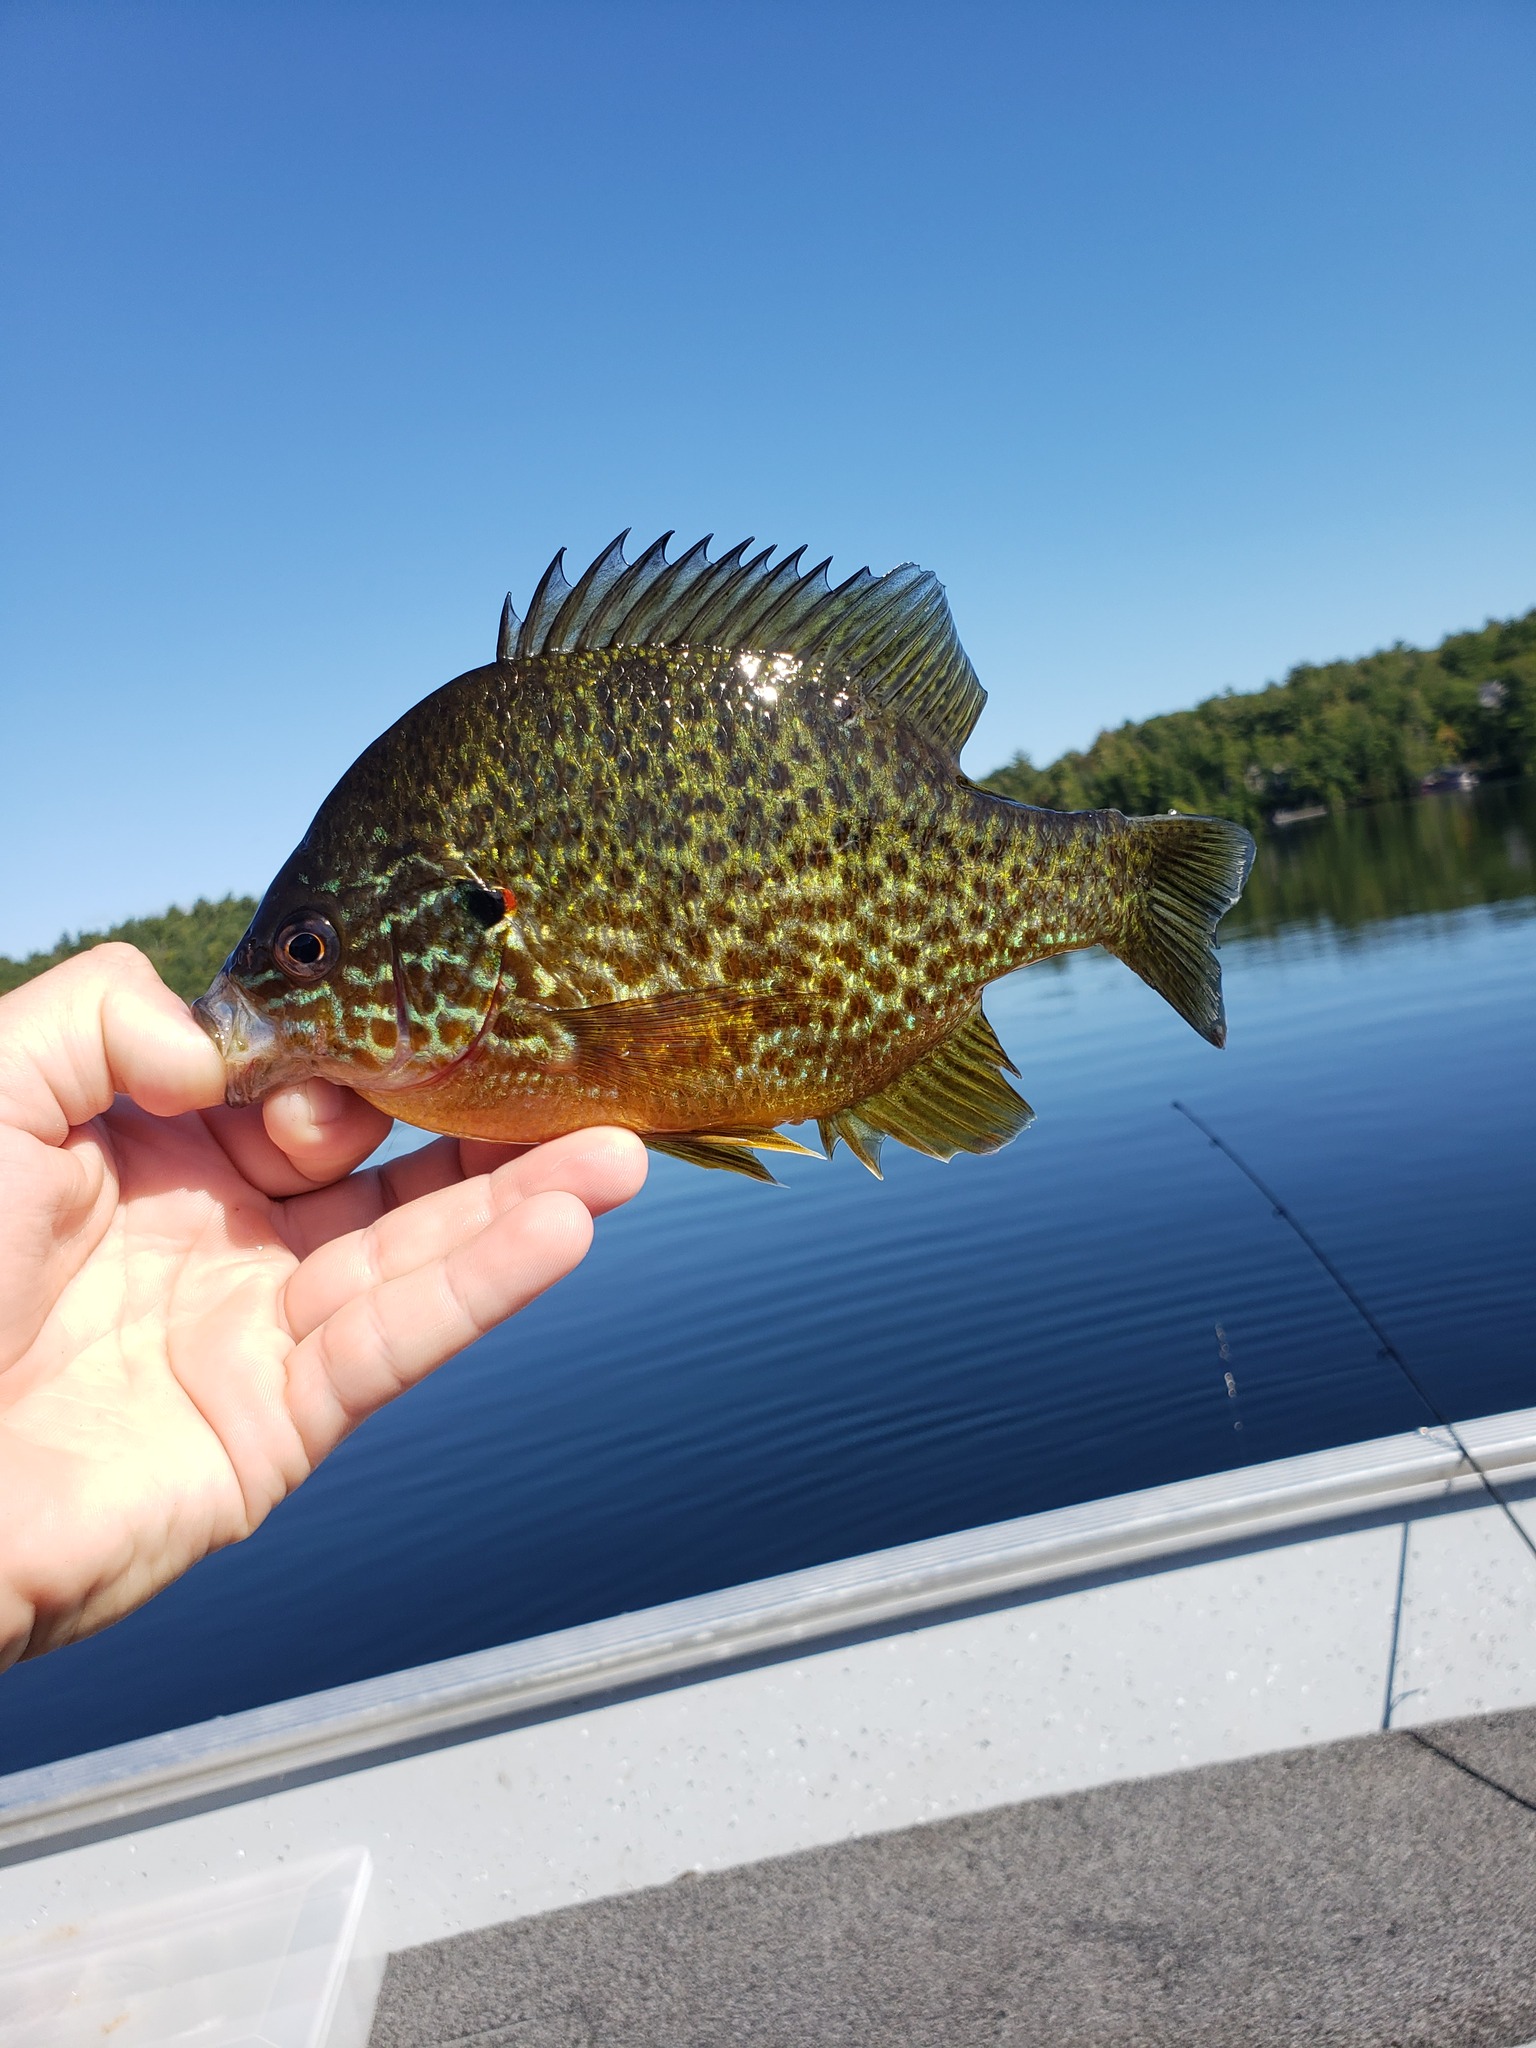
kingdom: Animalia
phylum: Chordata
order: Perciformes
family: Centrarchidae
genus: Lepomis
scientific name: Lepomis gibbosus
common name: Pumpkinseed
